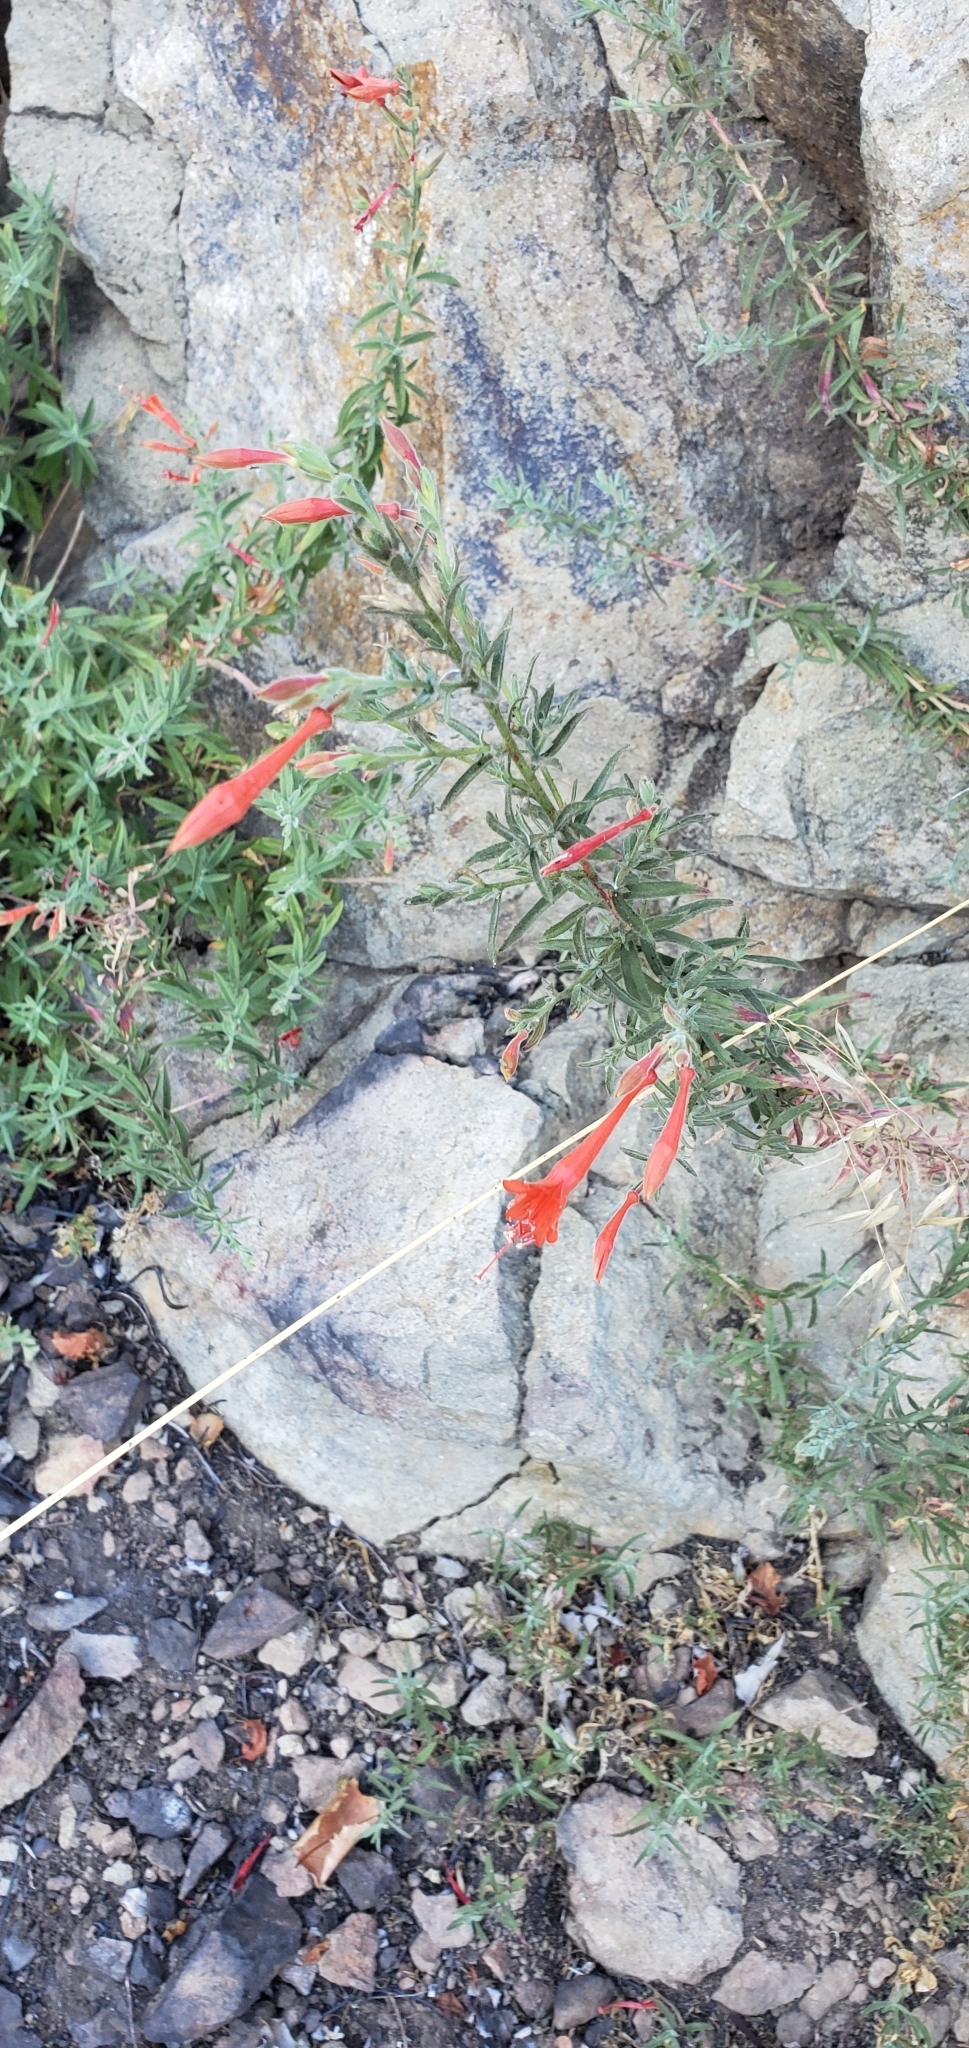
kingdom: Plantae
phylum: Tracheophyta
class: Magnoliopsida
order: Myrtales
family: Onagraceae
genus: Epilobium
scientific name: Epilobium canum
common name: California-fuchsia
